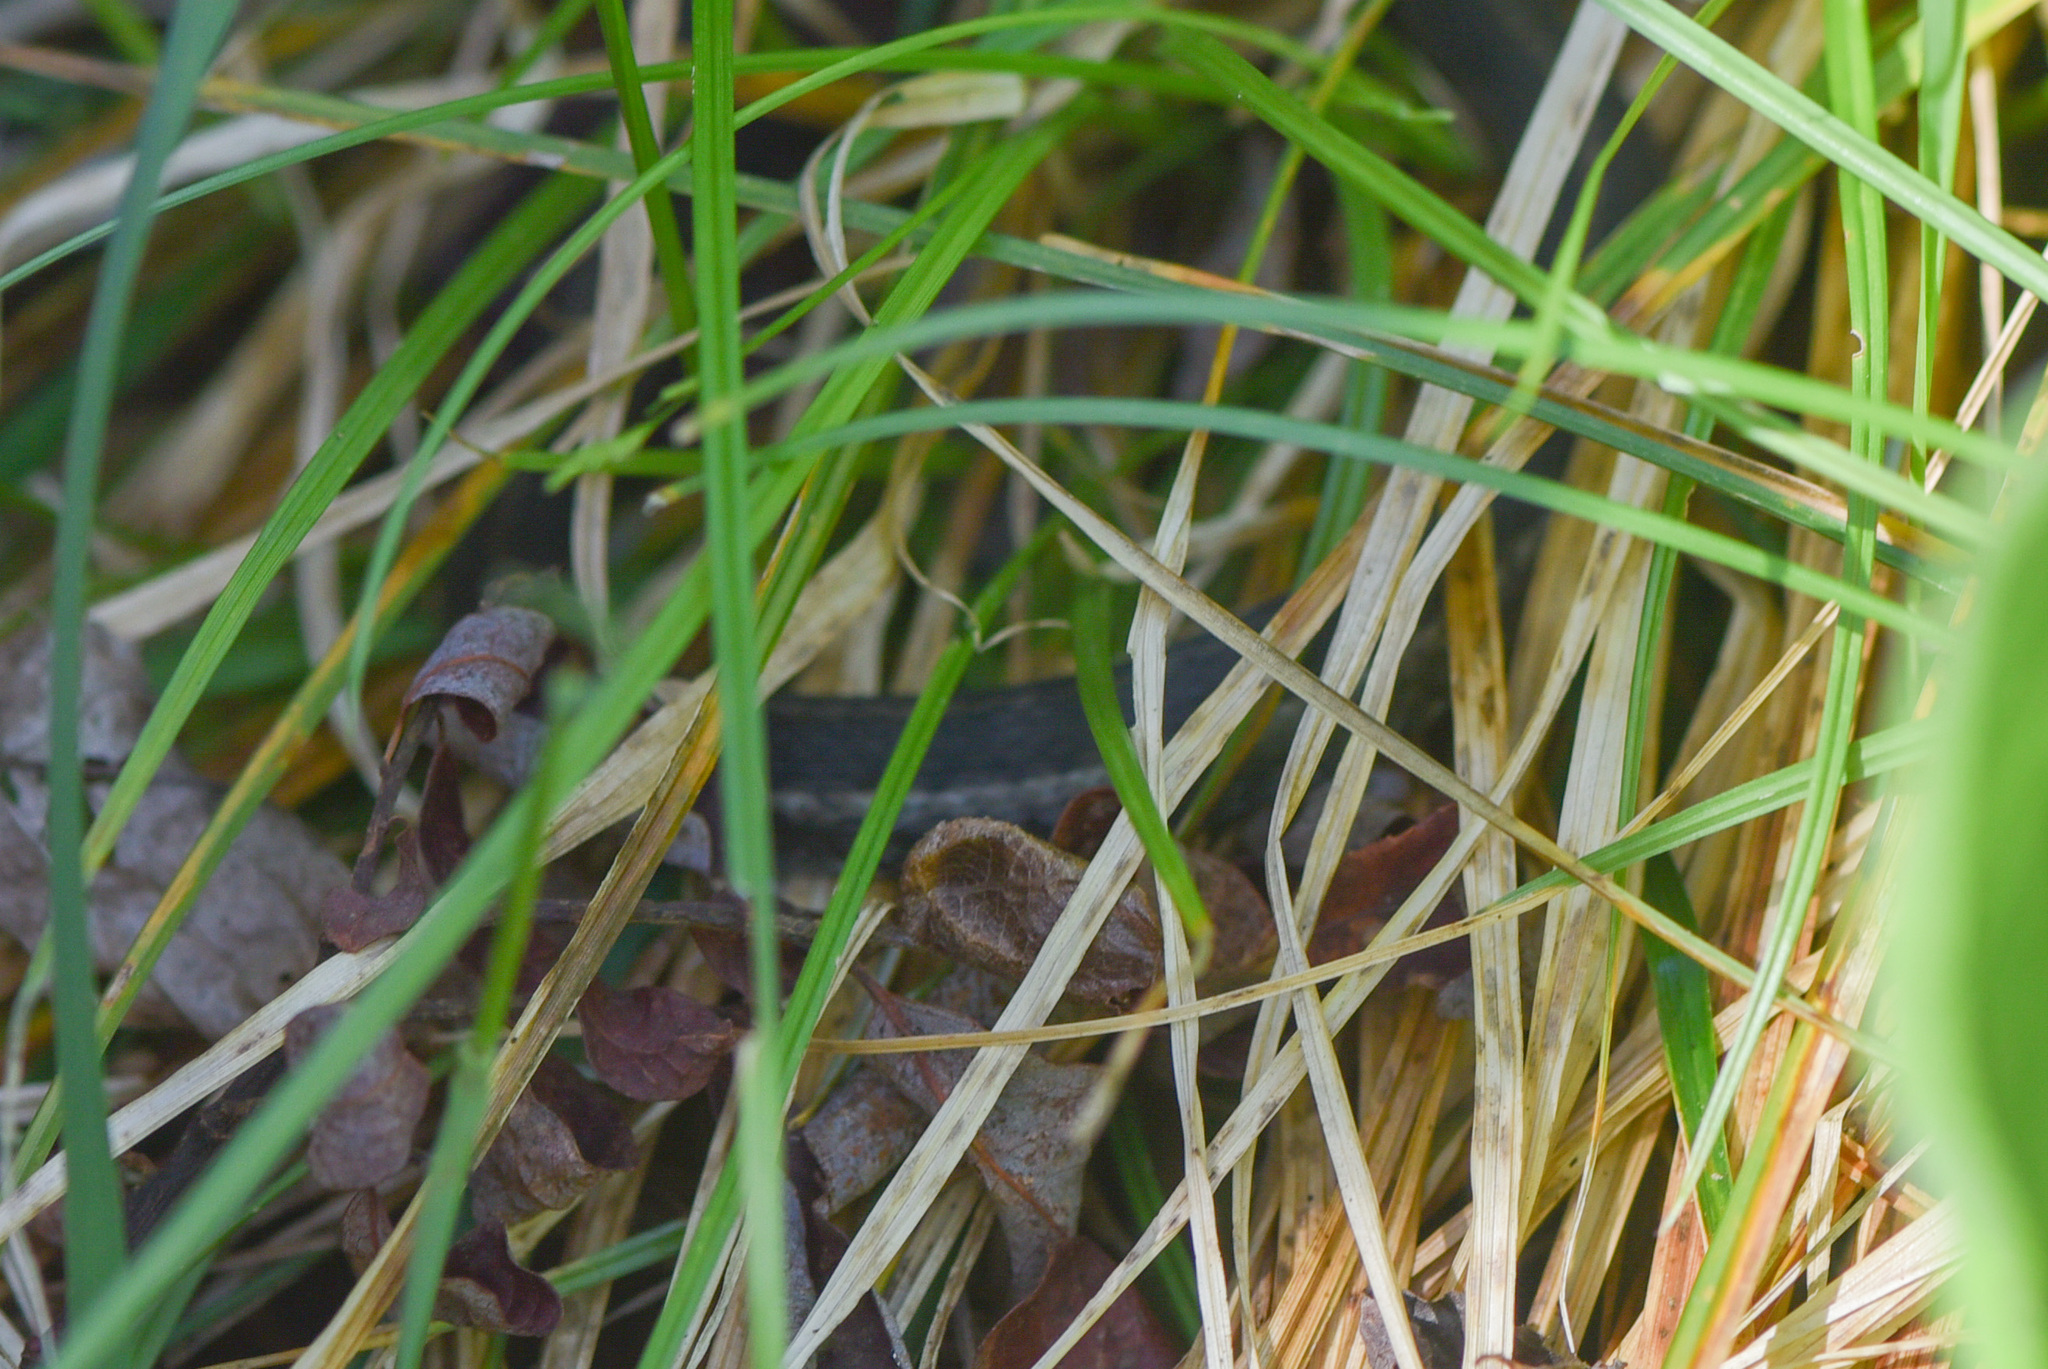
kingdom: Animalia
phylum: Chordata
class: Squamata
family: Colubridae
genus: Thamnophis
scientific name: Thamnophis elegans
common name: Western terrestrial garter snake
